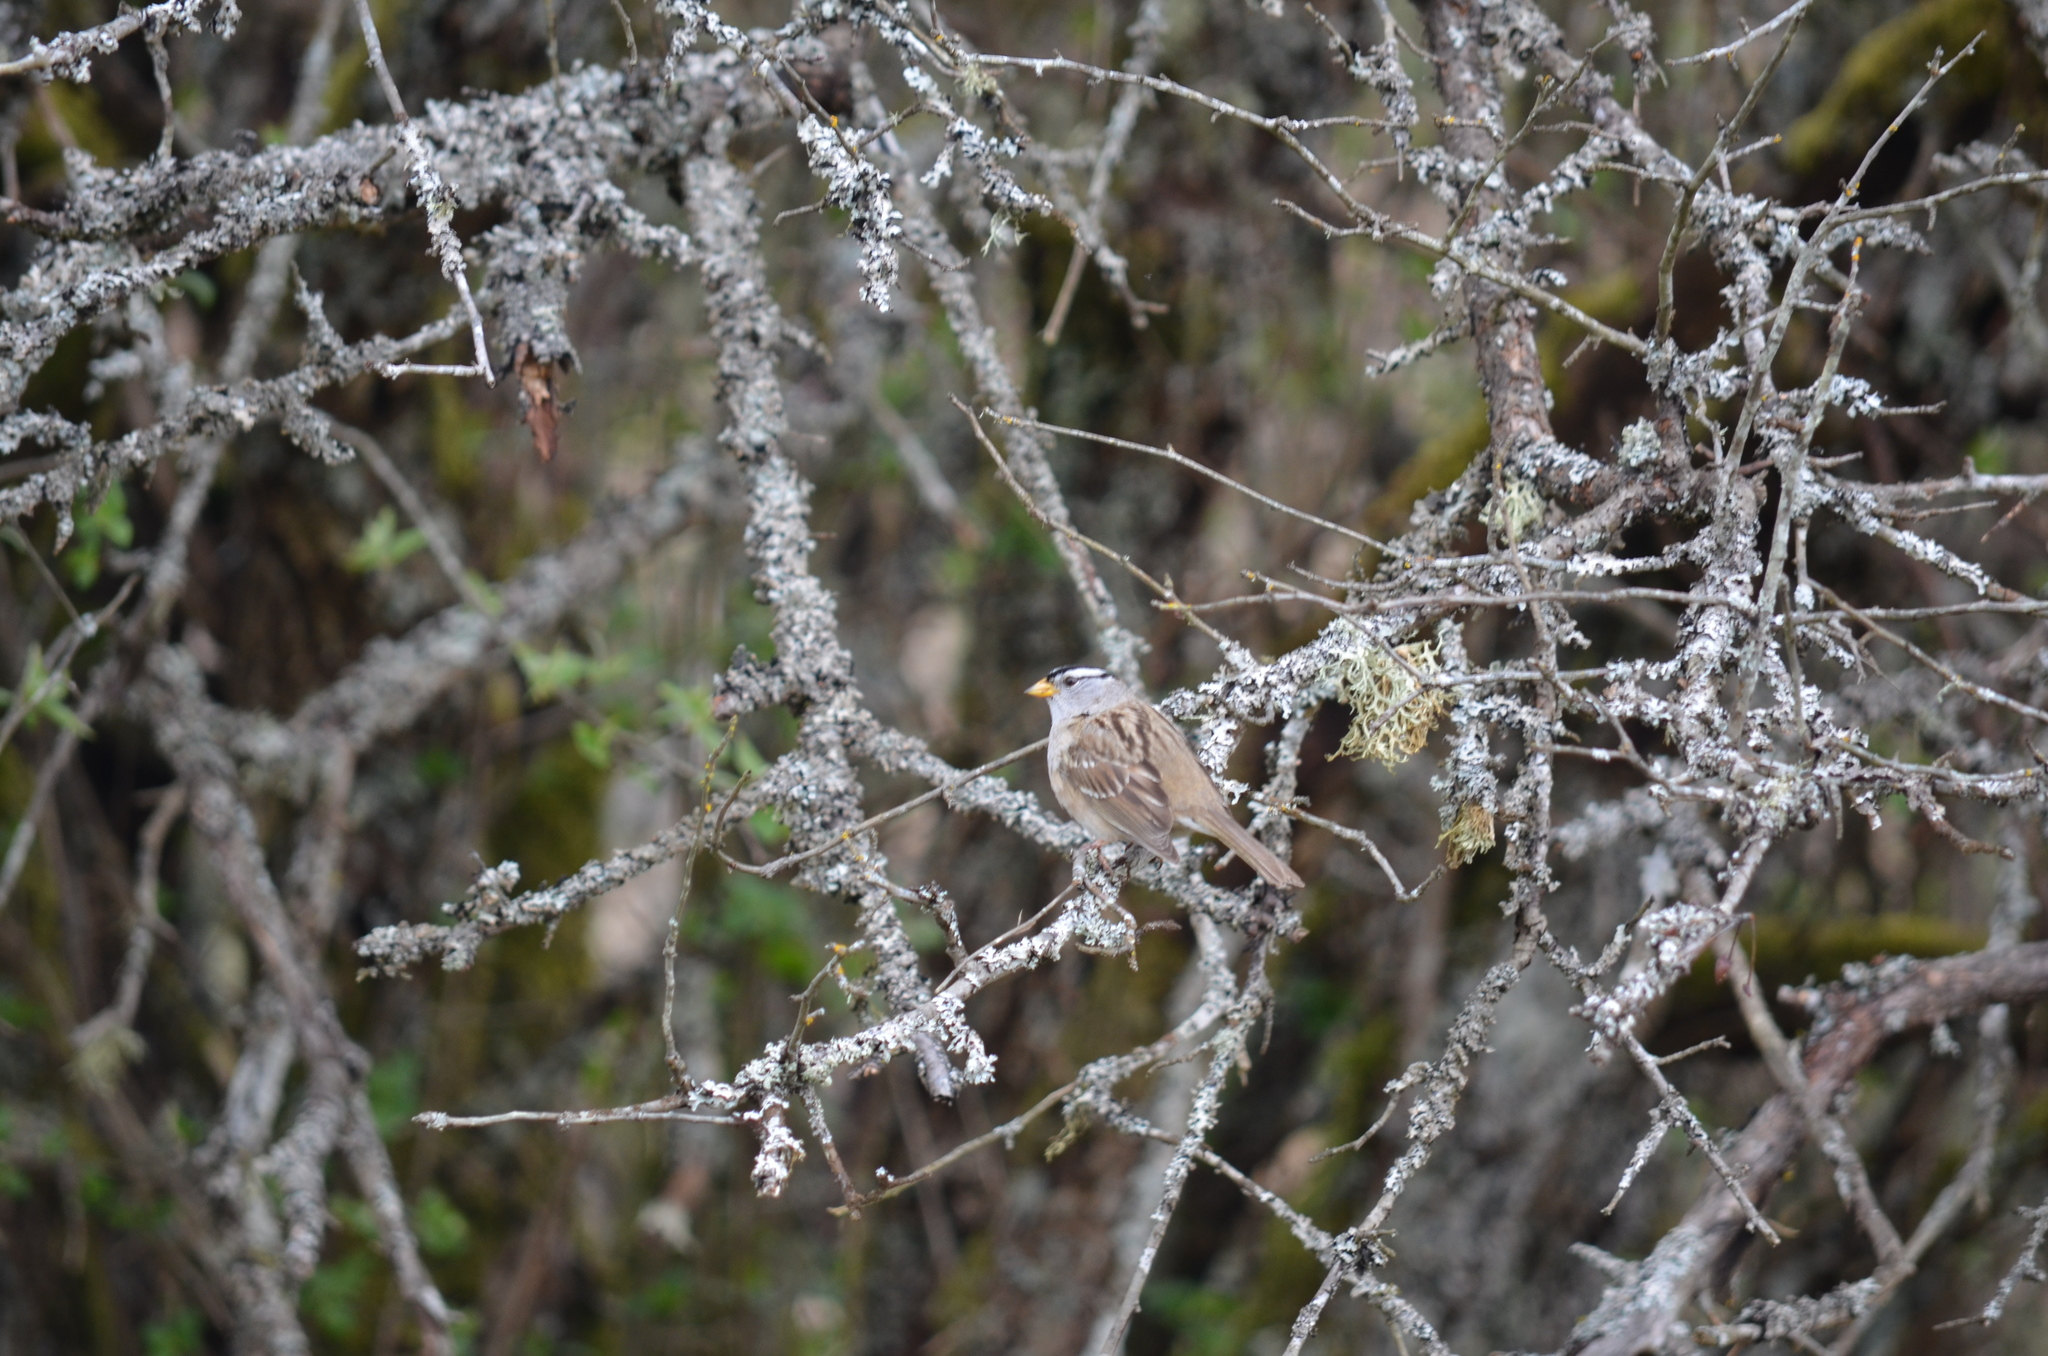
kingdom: Animalia
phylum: Chordata
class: Aves
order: Passeriformes
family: Passerellidae
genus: Zonotrichia
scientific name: Zonotrichia leucophrys
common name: White-crowned sparrow
